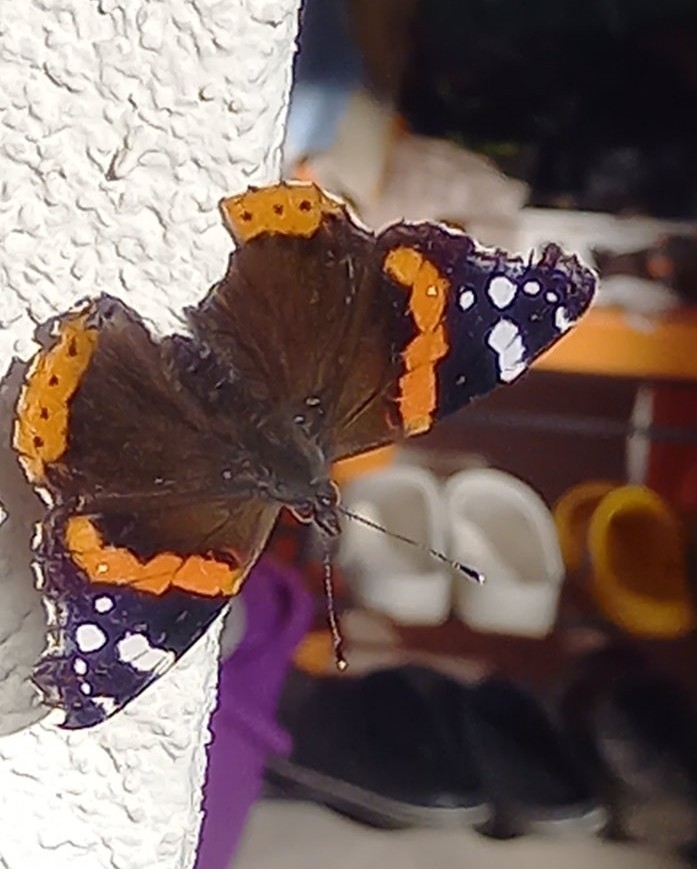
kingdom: Animalia
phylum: Arthropoda
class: Insecta
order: Lepidoptera
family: Nymphalidae
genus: Vanessa
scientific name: Vanessa atalanta
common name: Red admiral
